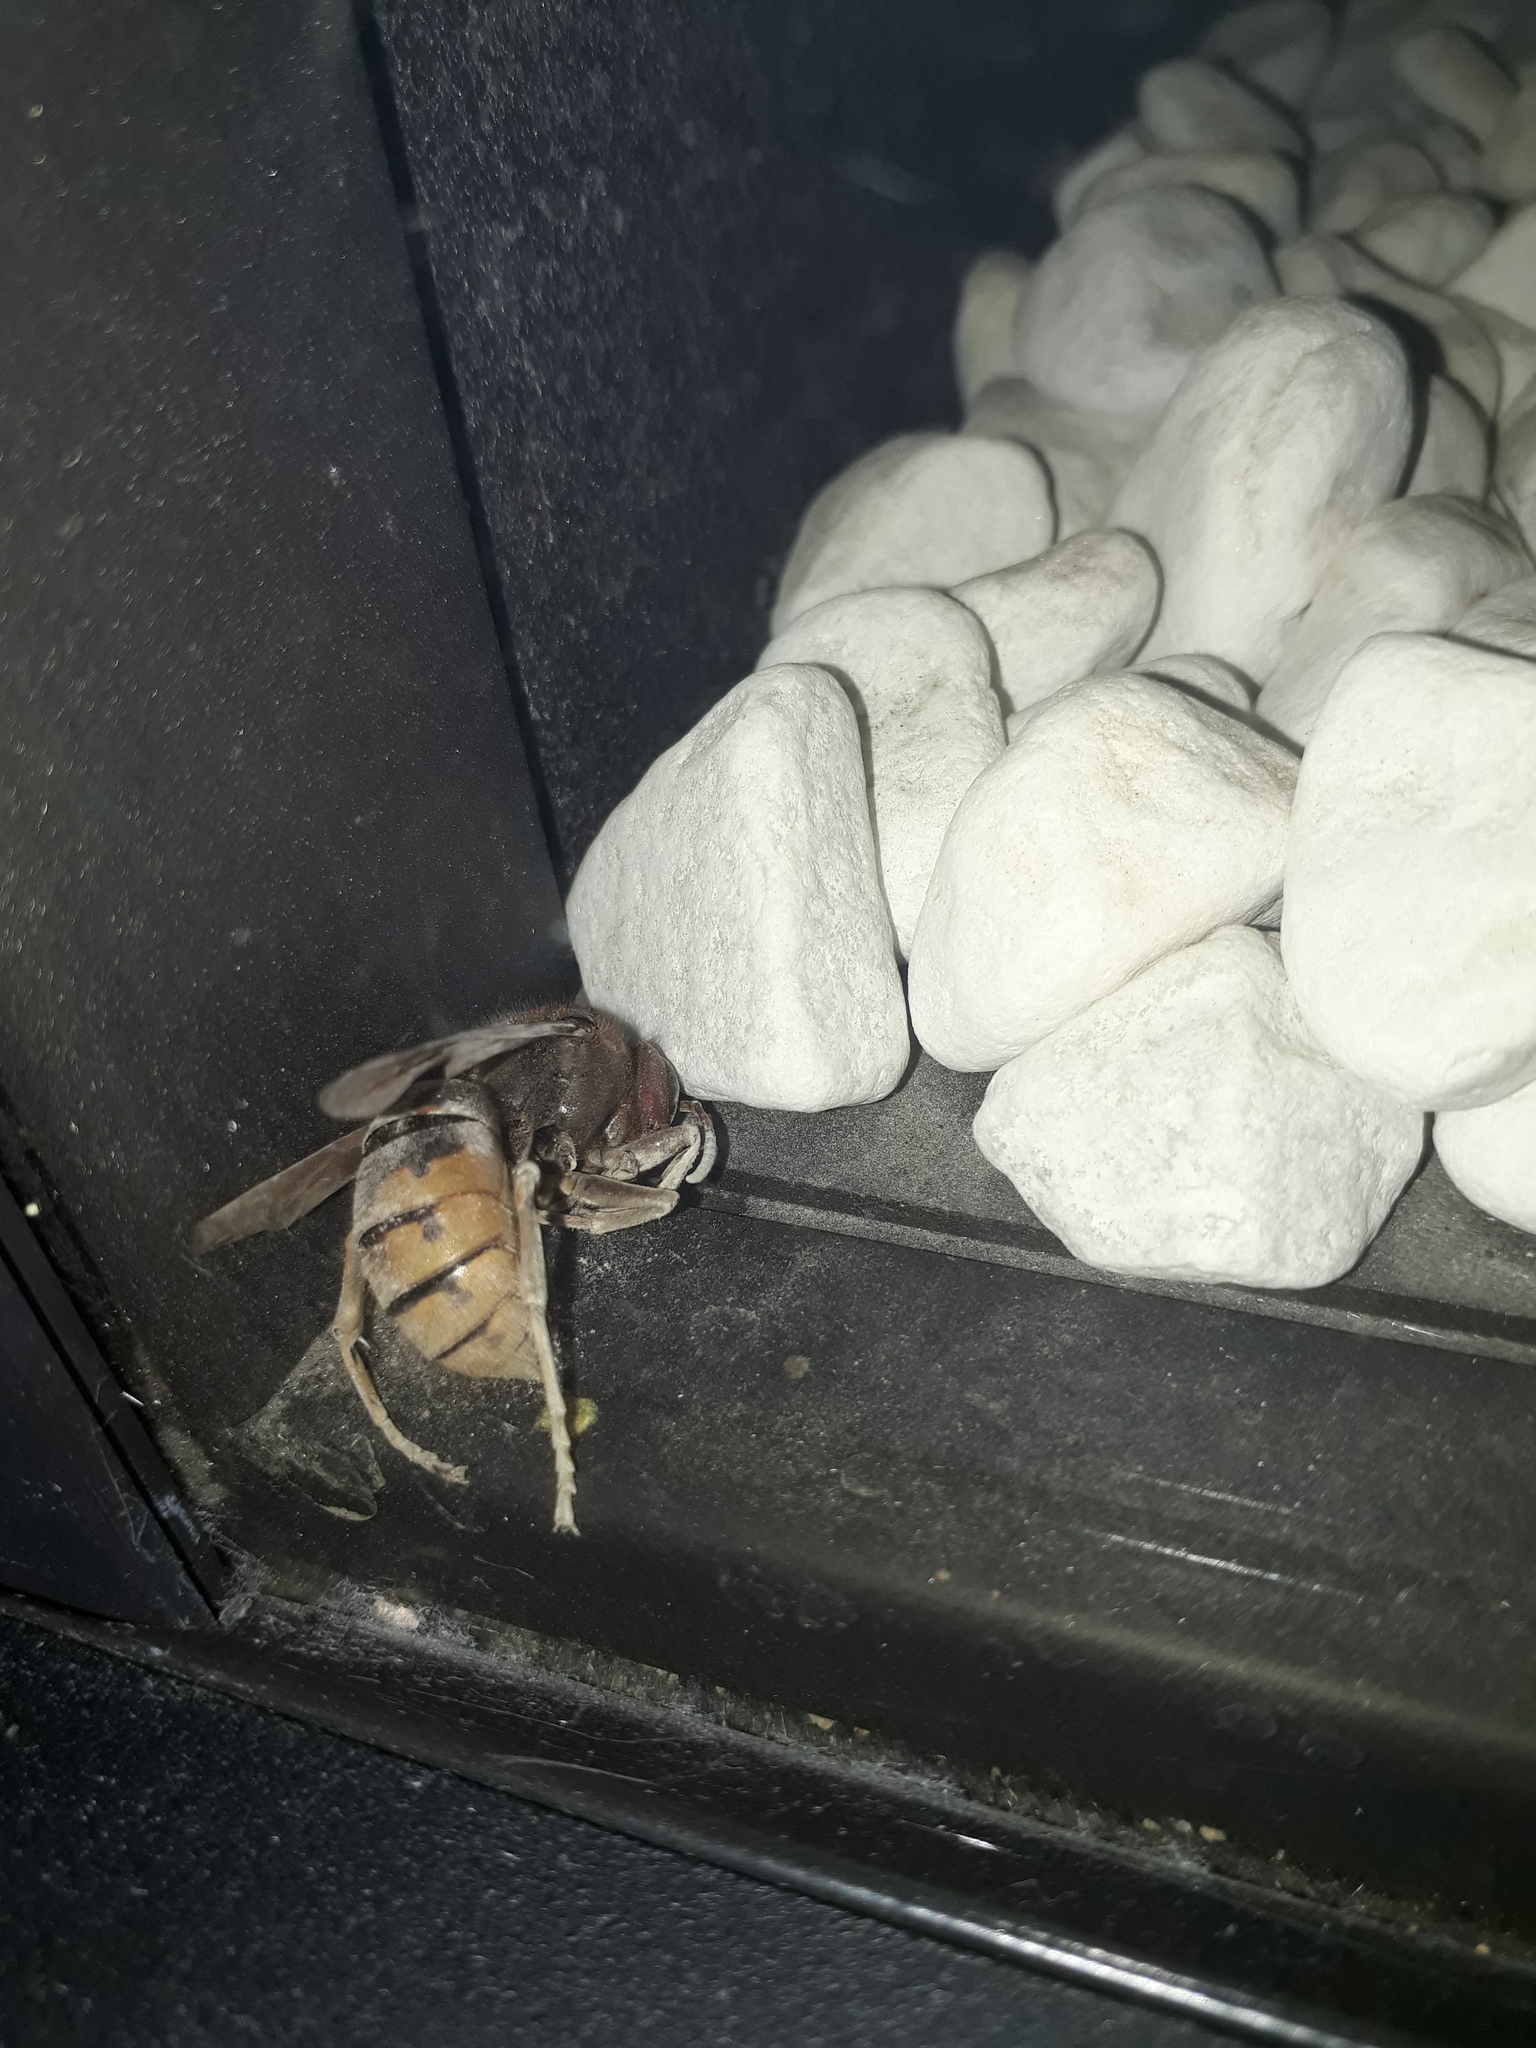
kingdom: Animalia
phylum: Arthropoda
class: Insecta
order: Hymenoptera
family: Vespidae
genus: Vespa
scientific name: Vespa crabro
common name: Hornet
